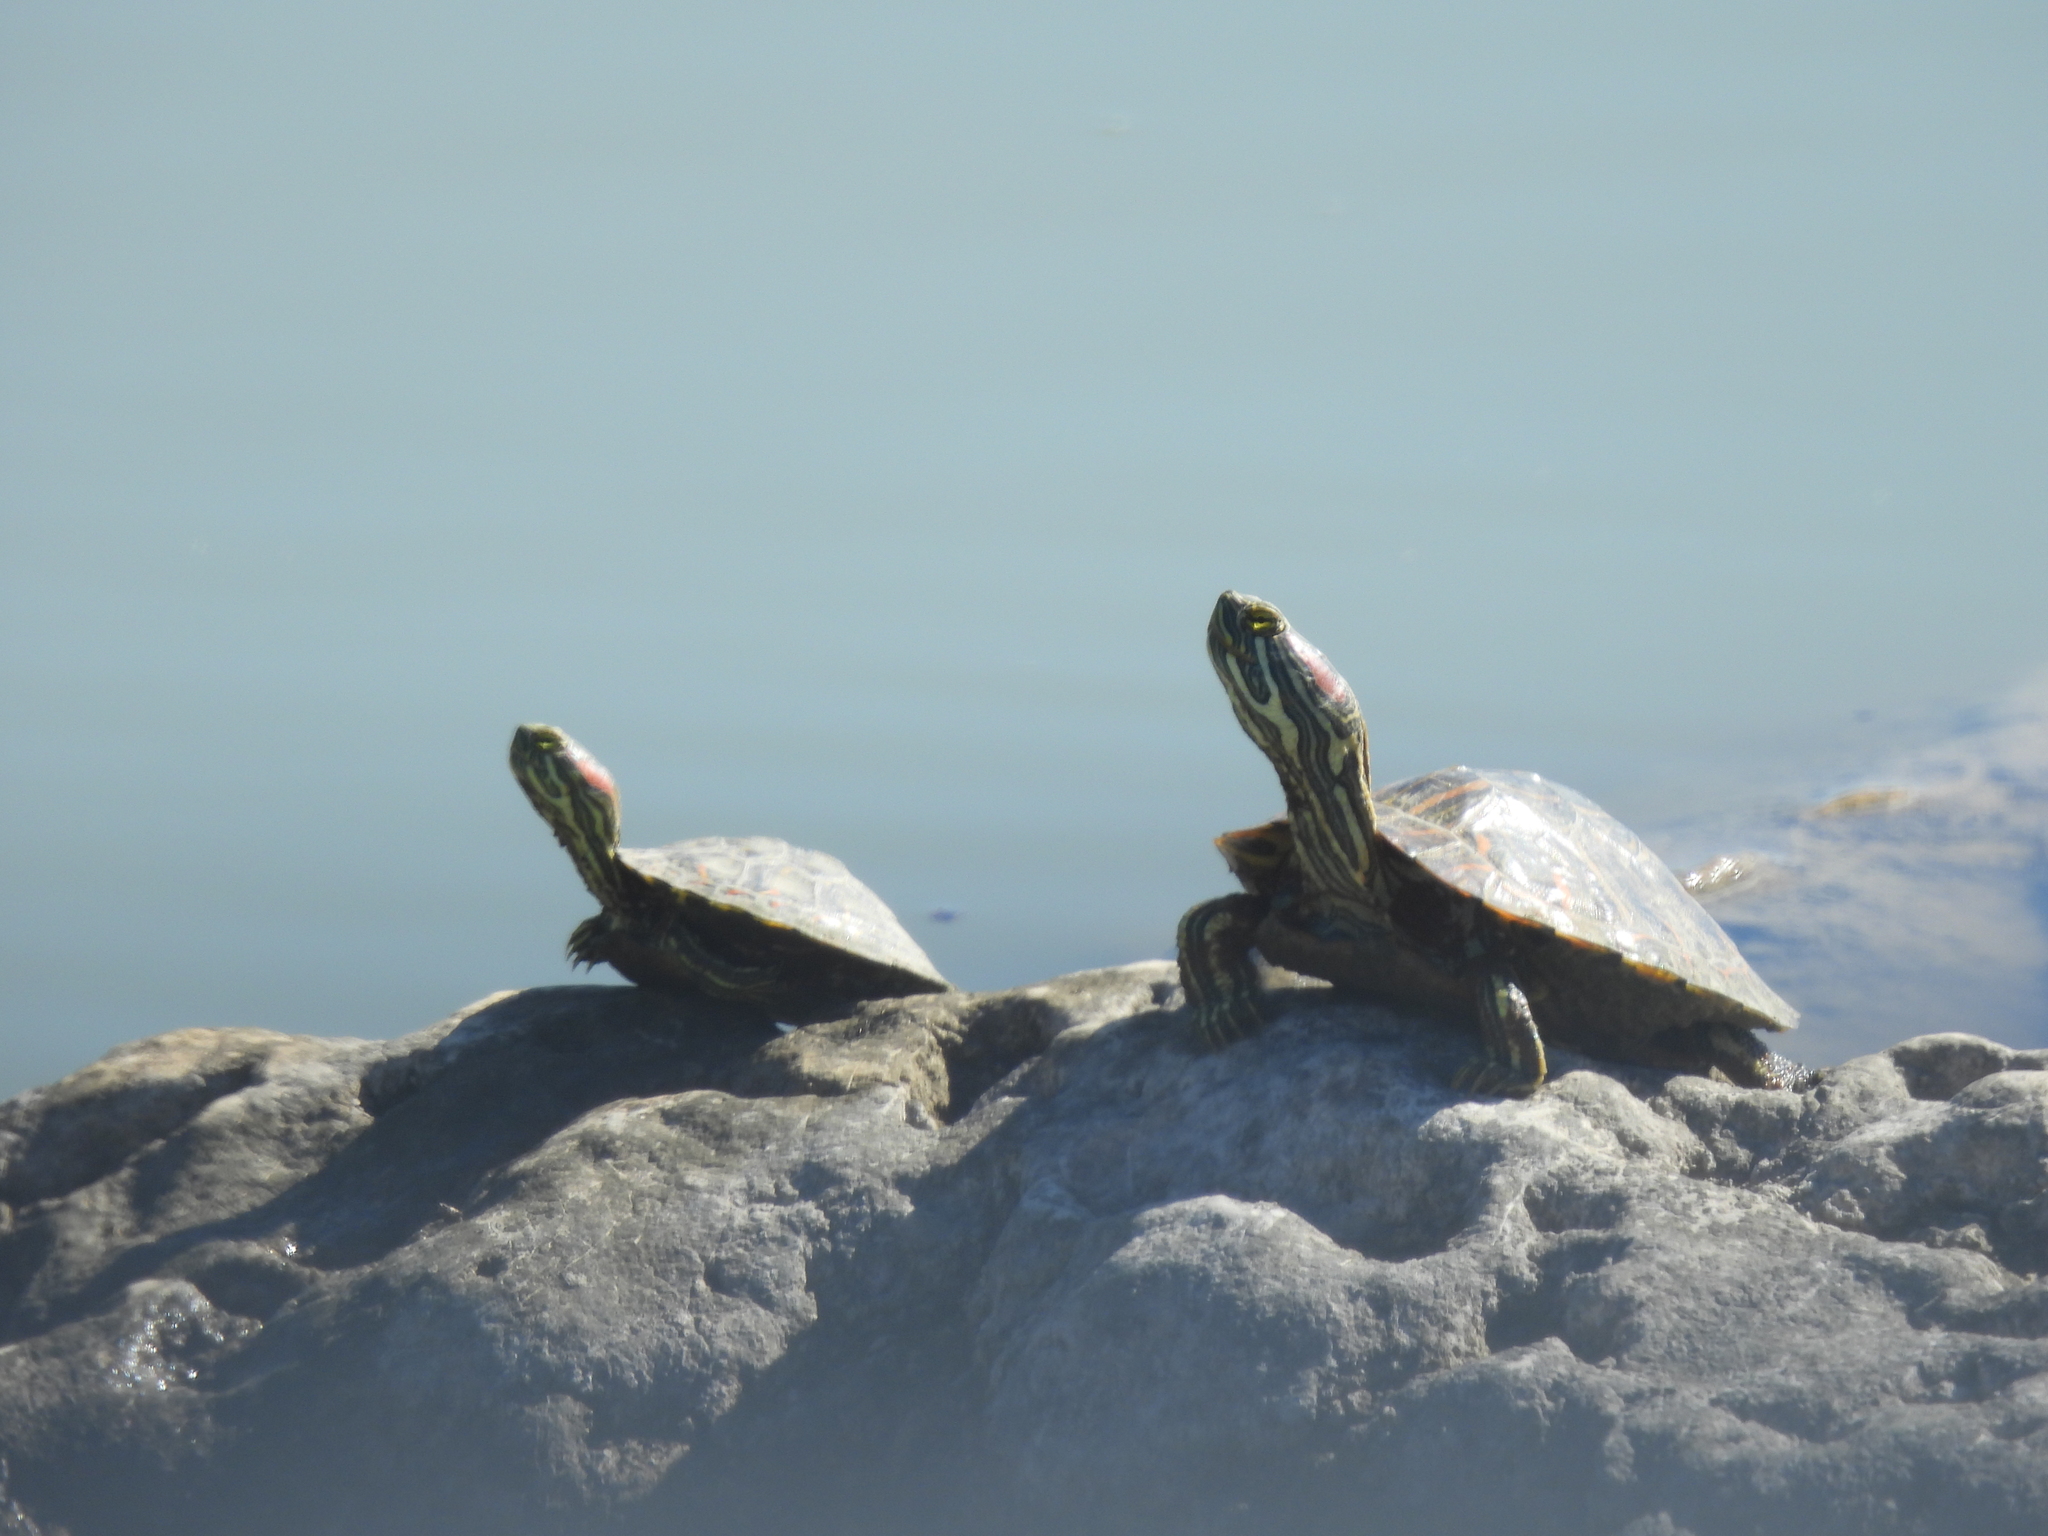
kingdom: Animalia
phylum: Chordata
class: Testudines
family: Emydidae
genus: Trachemys
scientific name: Trachemys scripta
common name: Slider
